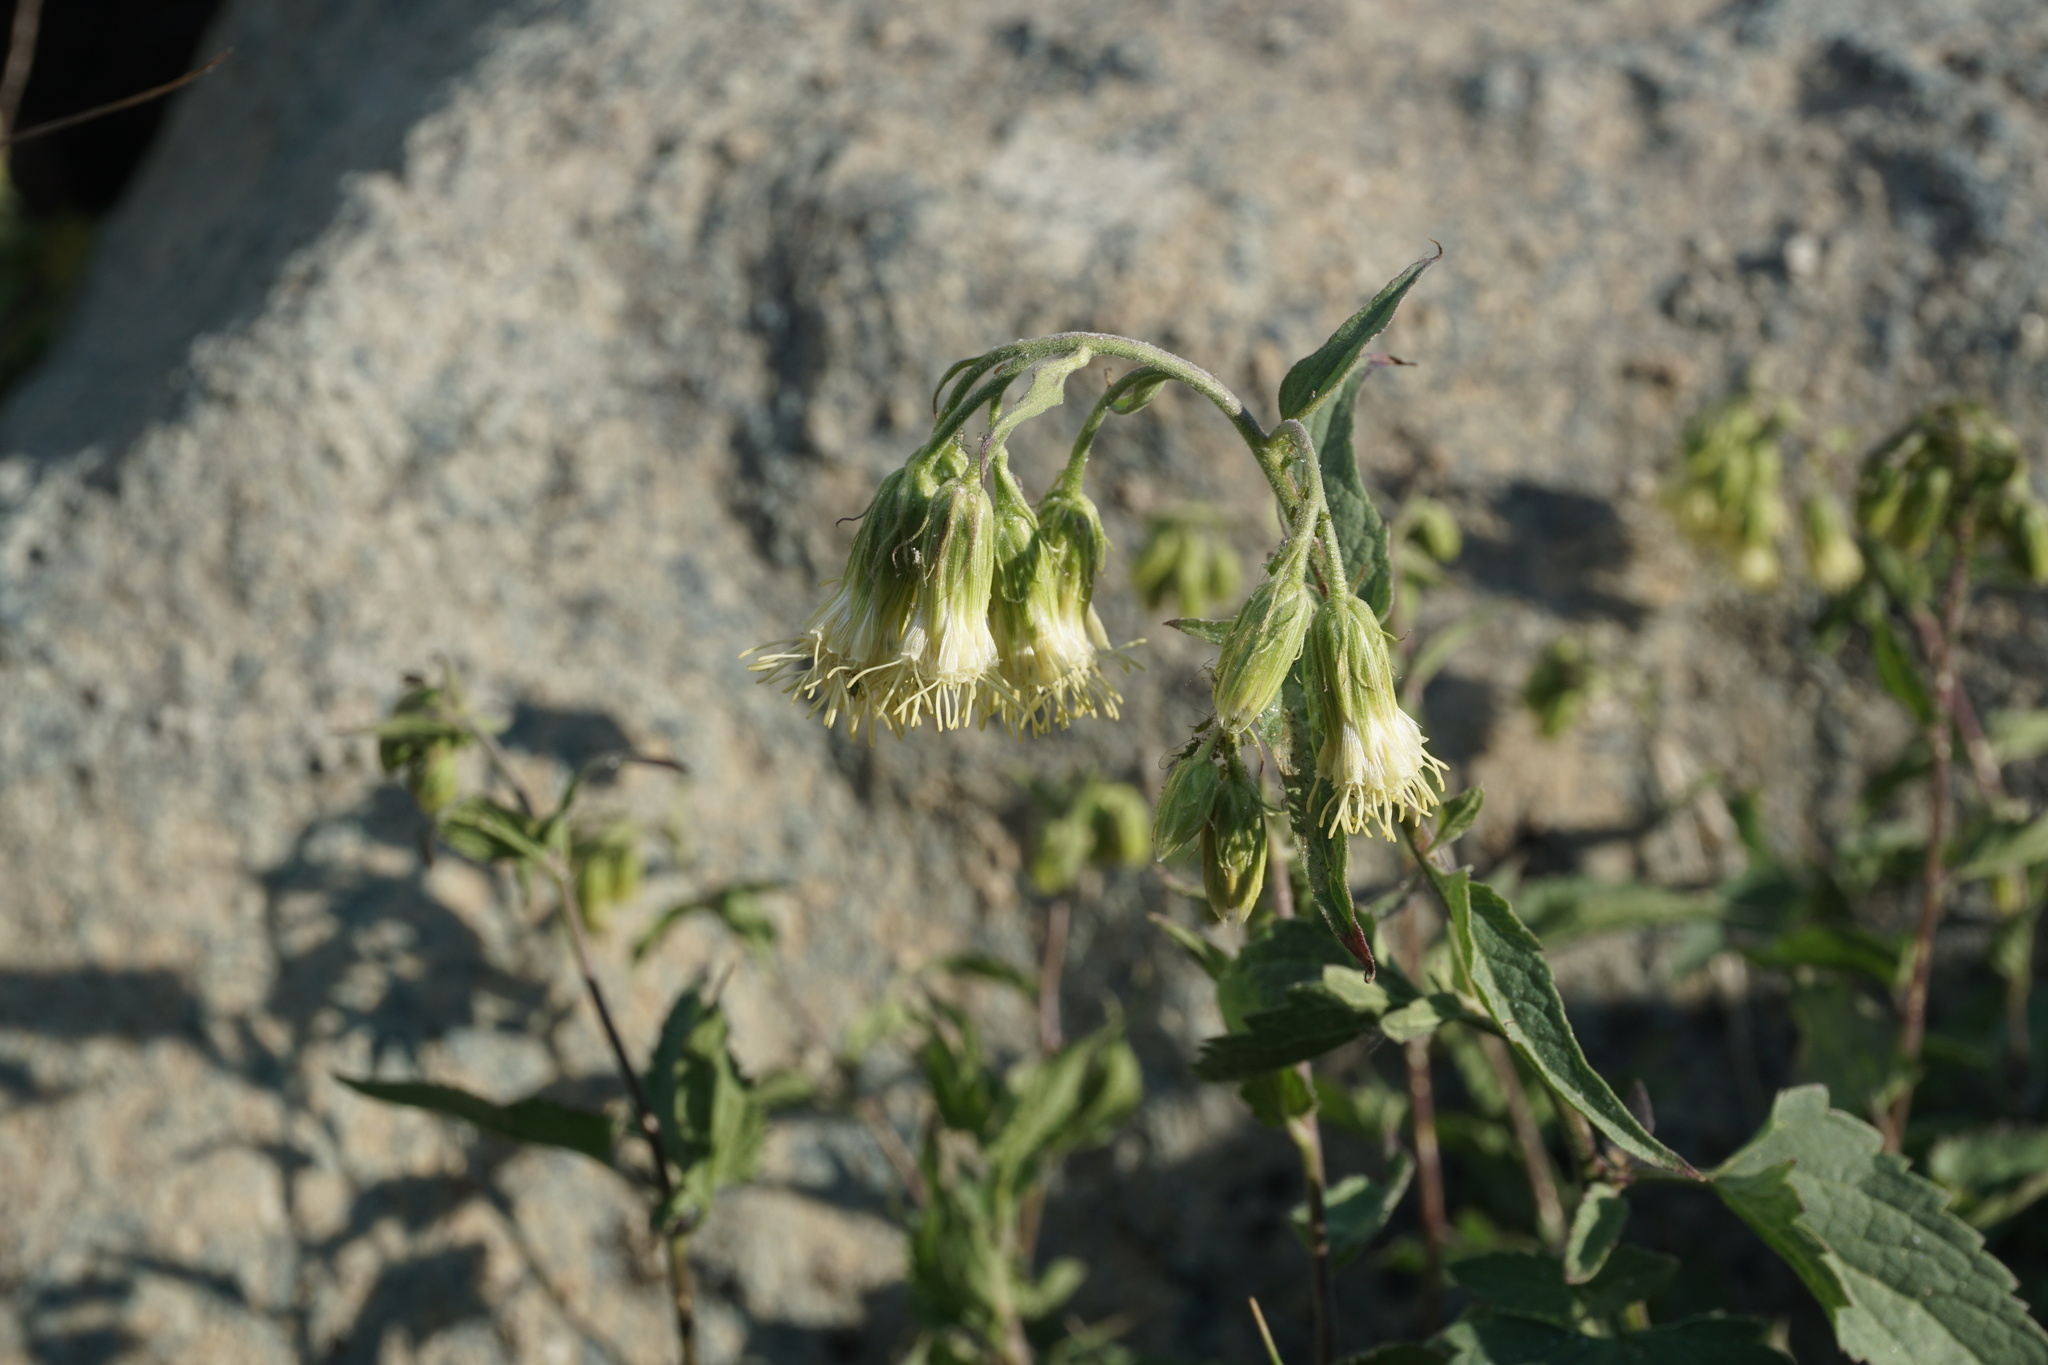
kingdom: Plantae
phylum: Tracheophyta
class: Magnoliopsida
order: Asterales
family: Asteraceae
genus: Brickellia
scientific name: Brickellia grandiflora
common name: Large-flowered brickellia
